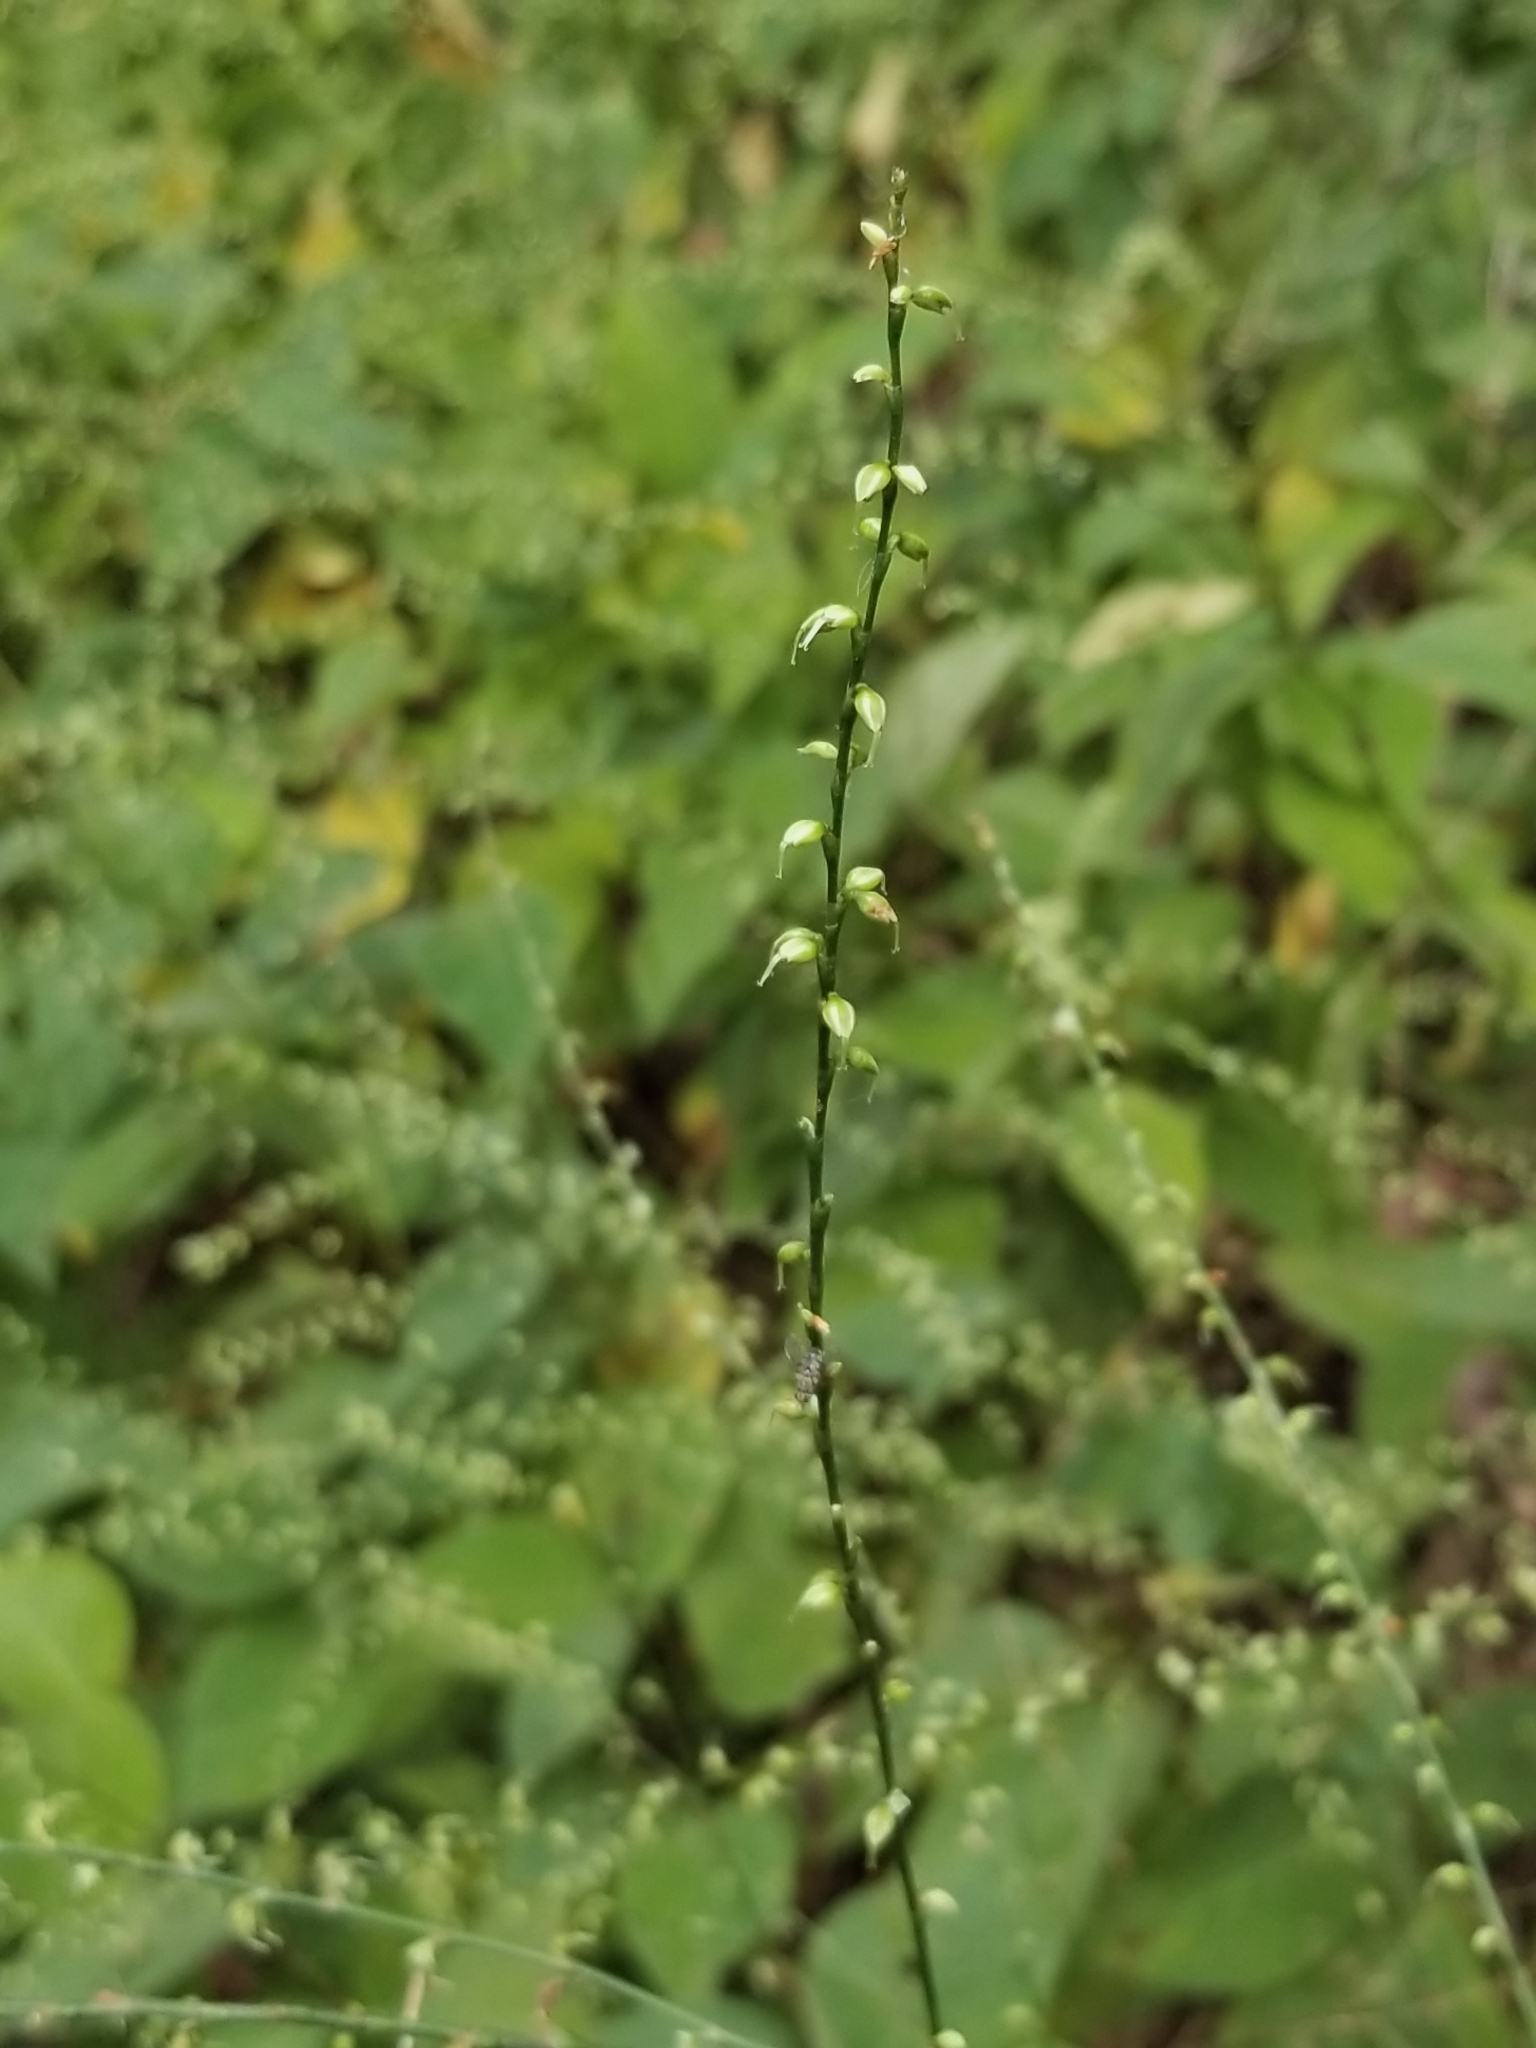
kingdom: Plantae
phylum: Tracheophyta
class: Magnoliopsida
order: Caryophyllales
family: Polygonaceae
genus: Persicaria
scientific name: Persicaria virginiana
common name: Jumpseed
